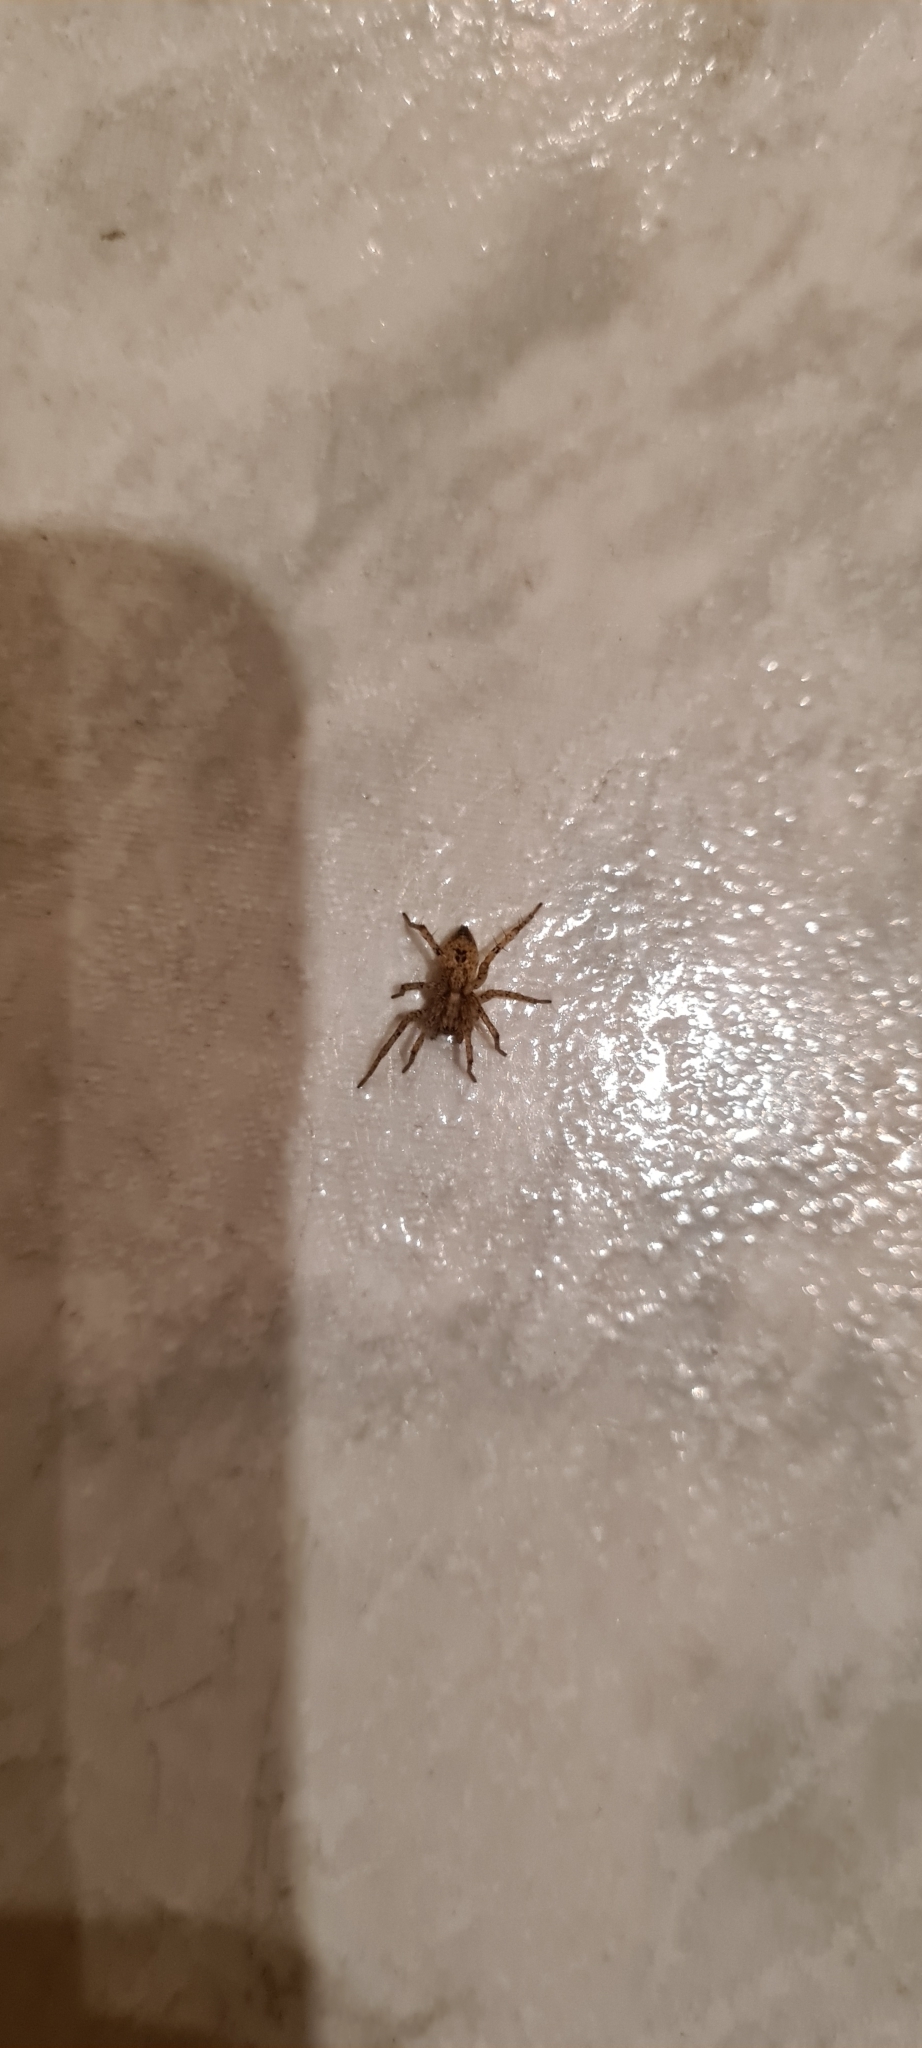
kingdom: Animalia
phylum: Arthropoda
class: Arachnida
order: Araneae
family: Anyphaenidae
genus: Anyphaena
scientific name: Anyphaena accentuata
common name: Buzzing spider
